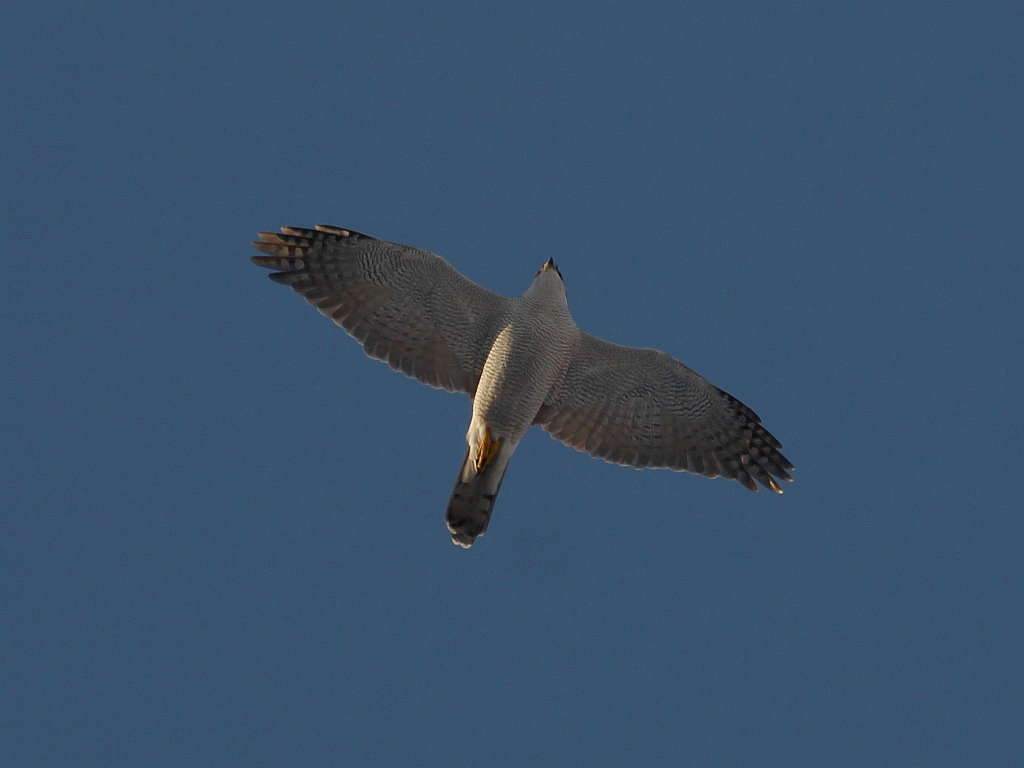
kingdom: Animalia
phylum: Chordata
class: Aves
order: Accipitriformes
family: Accipitridae
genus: Accipiter
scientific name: Accipiter gentilis
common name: Northern goshawk
